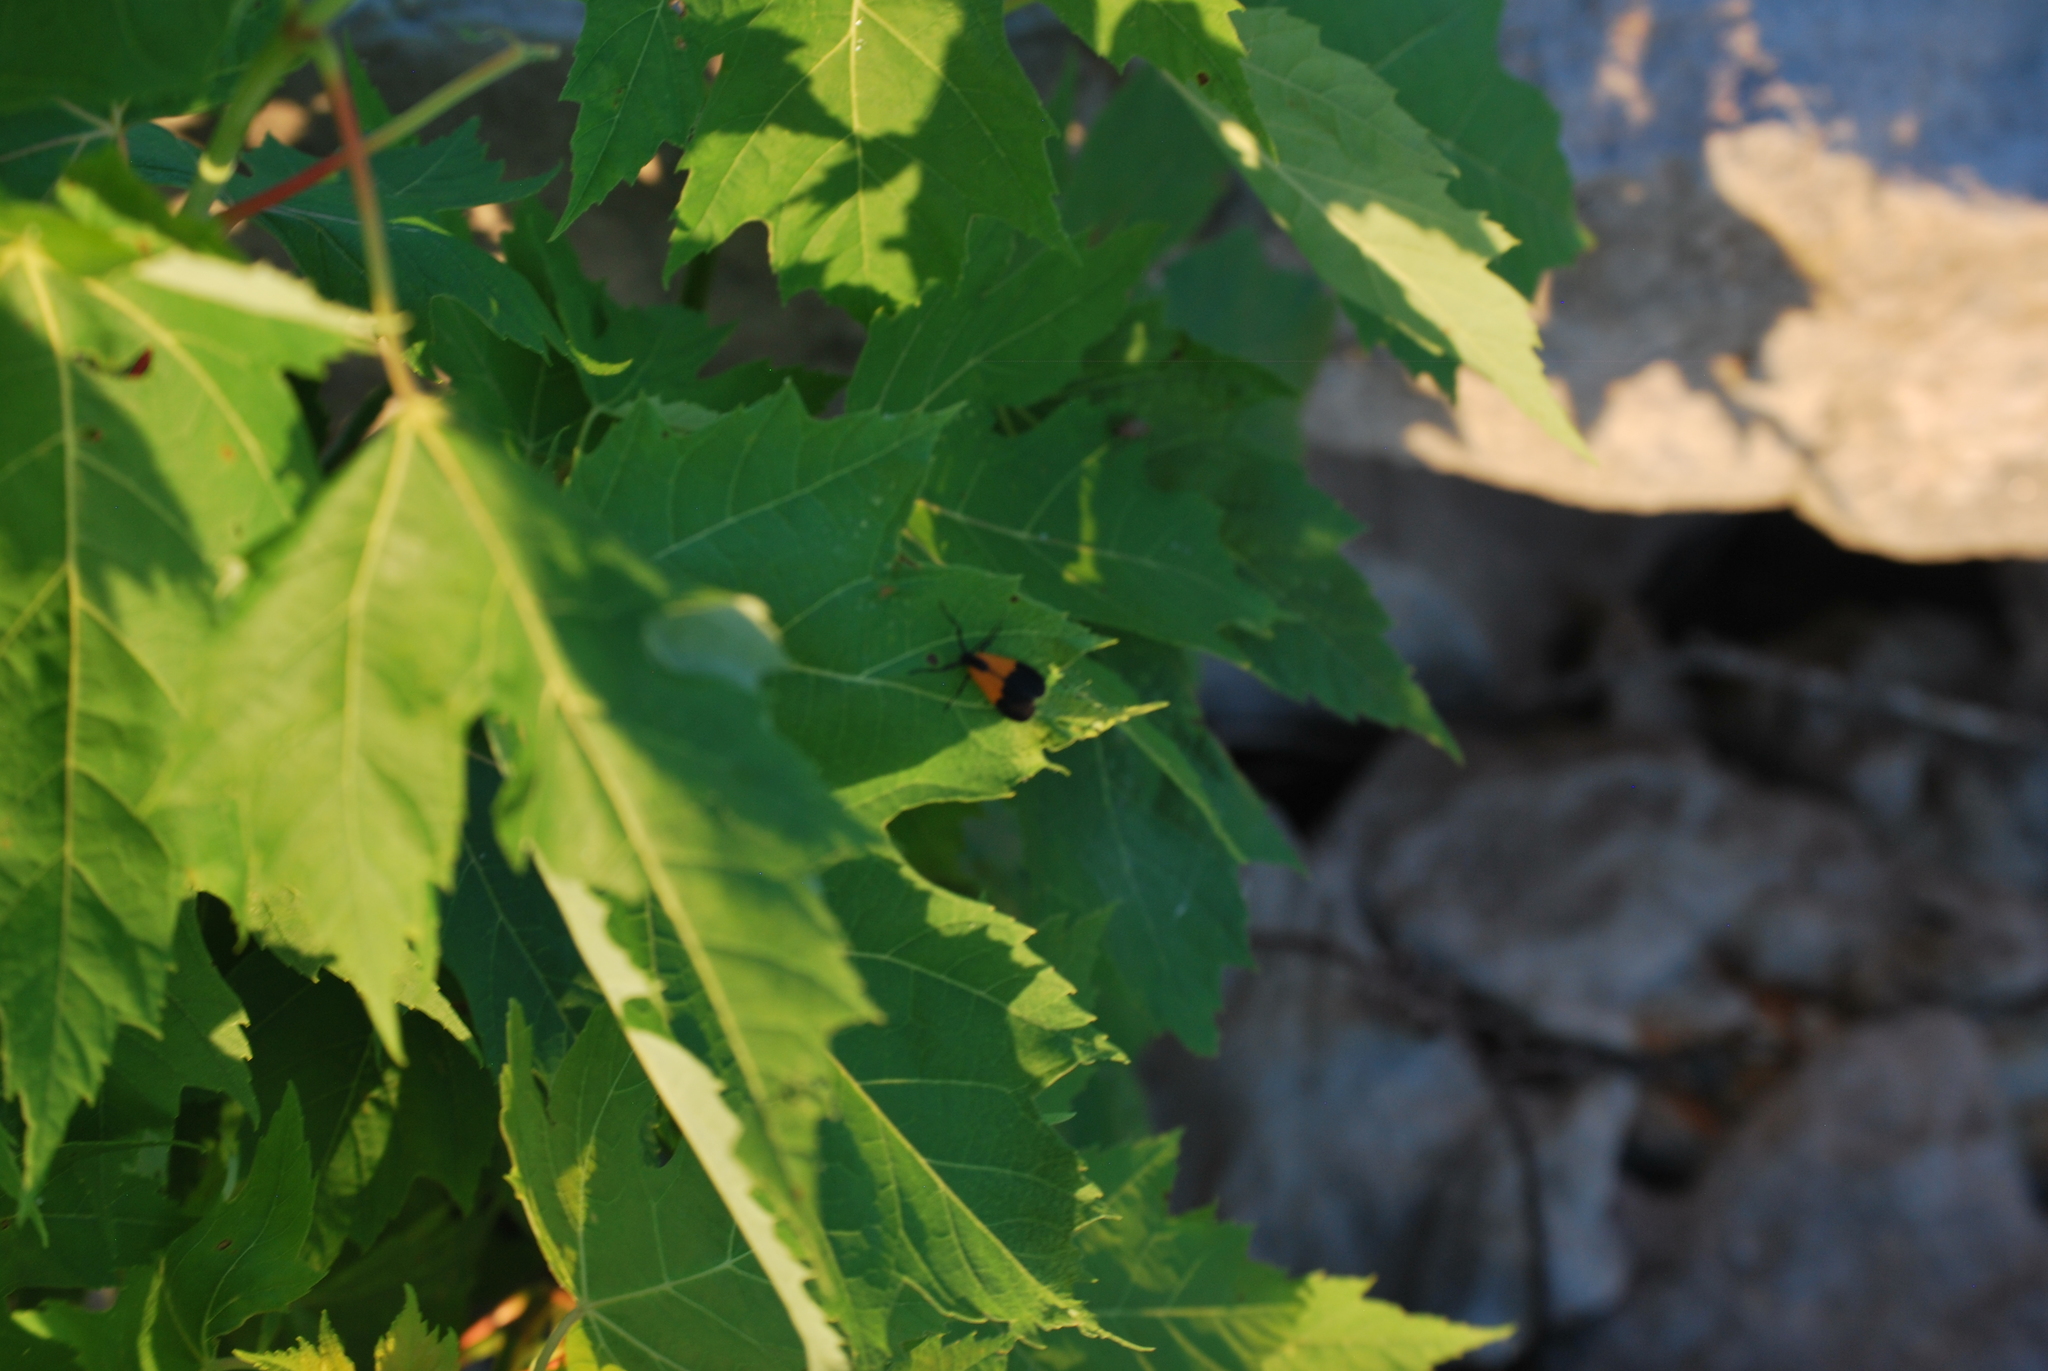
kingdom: Animalia
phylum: Arthropoda
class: Insecta
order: Lepidoptera
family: Erebidae
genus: Lycomorpha
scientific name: Lycomorpha pholus
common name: Black-and-yellow lichen moth
